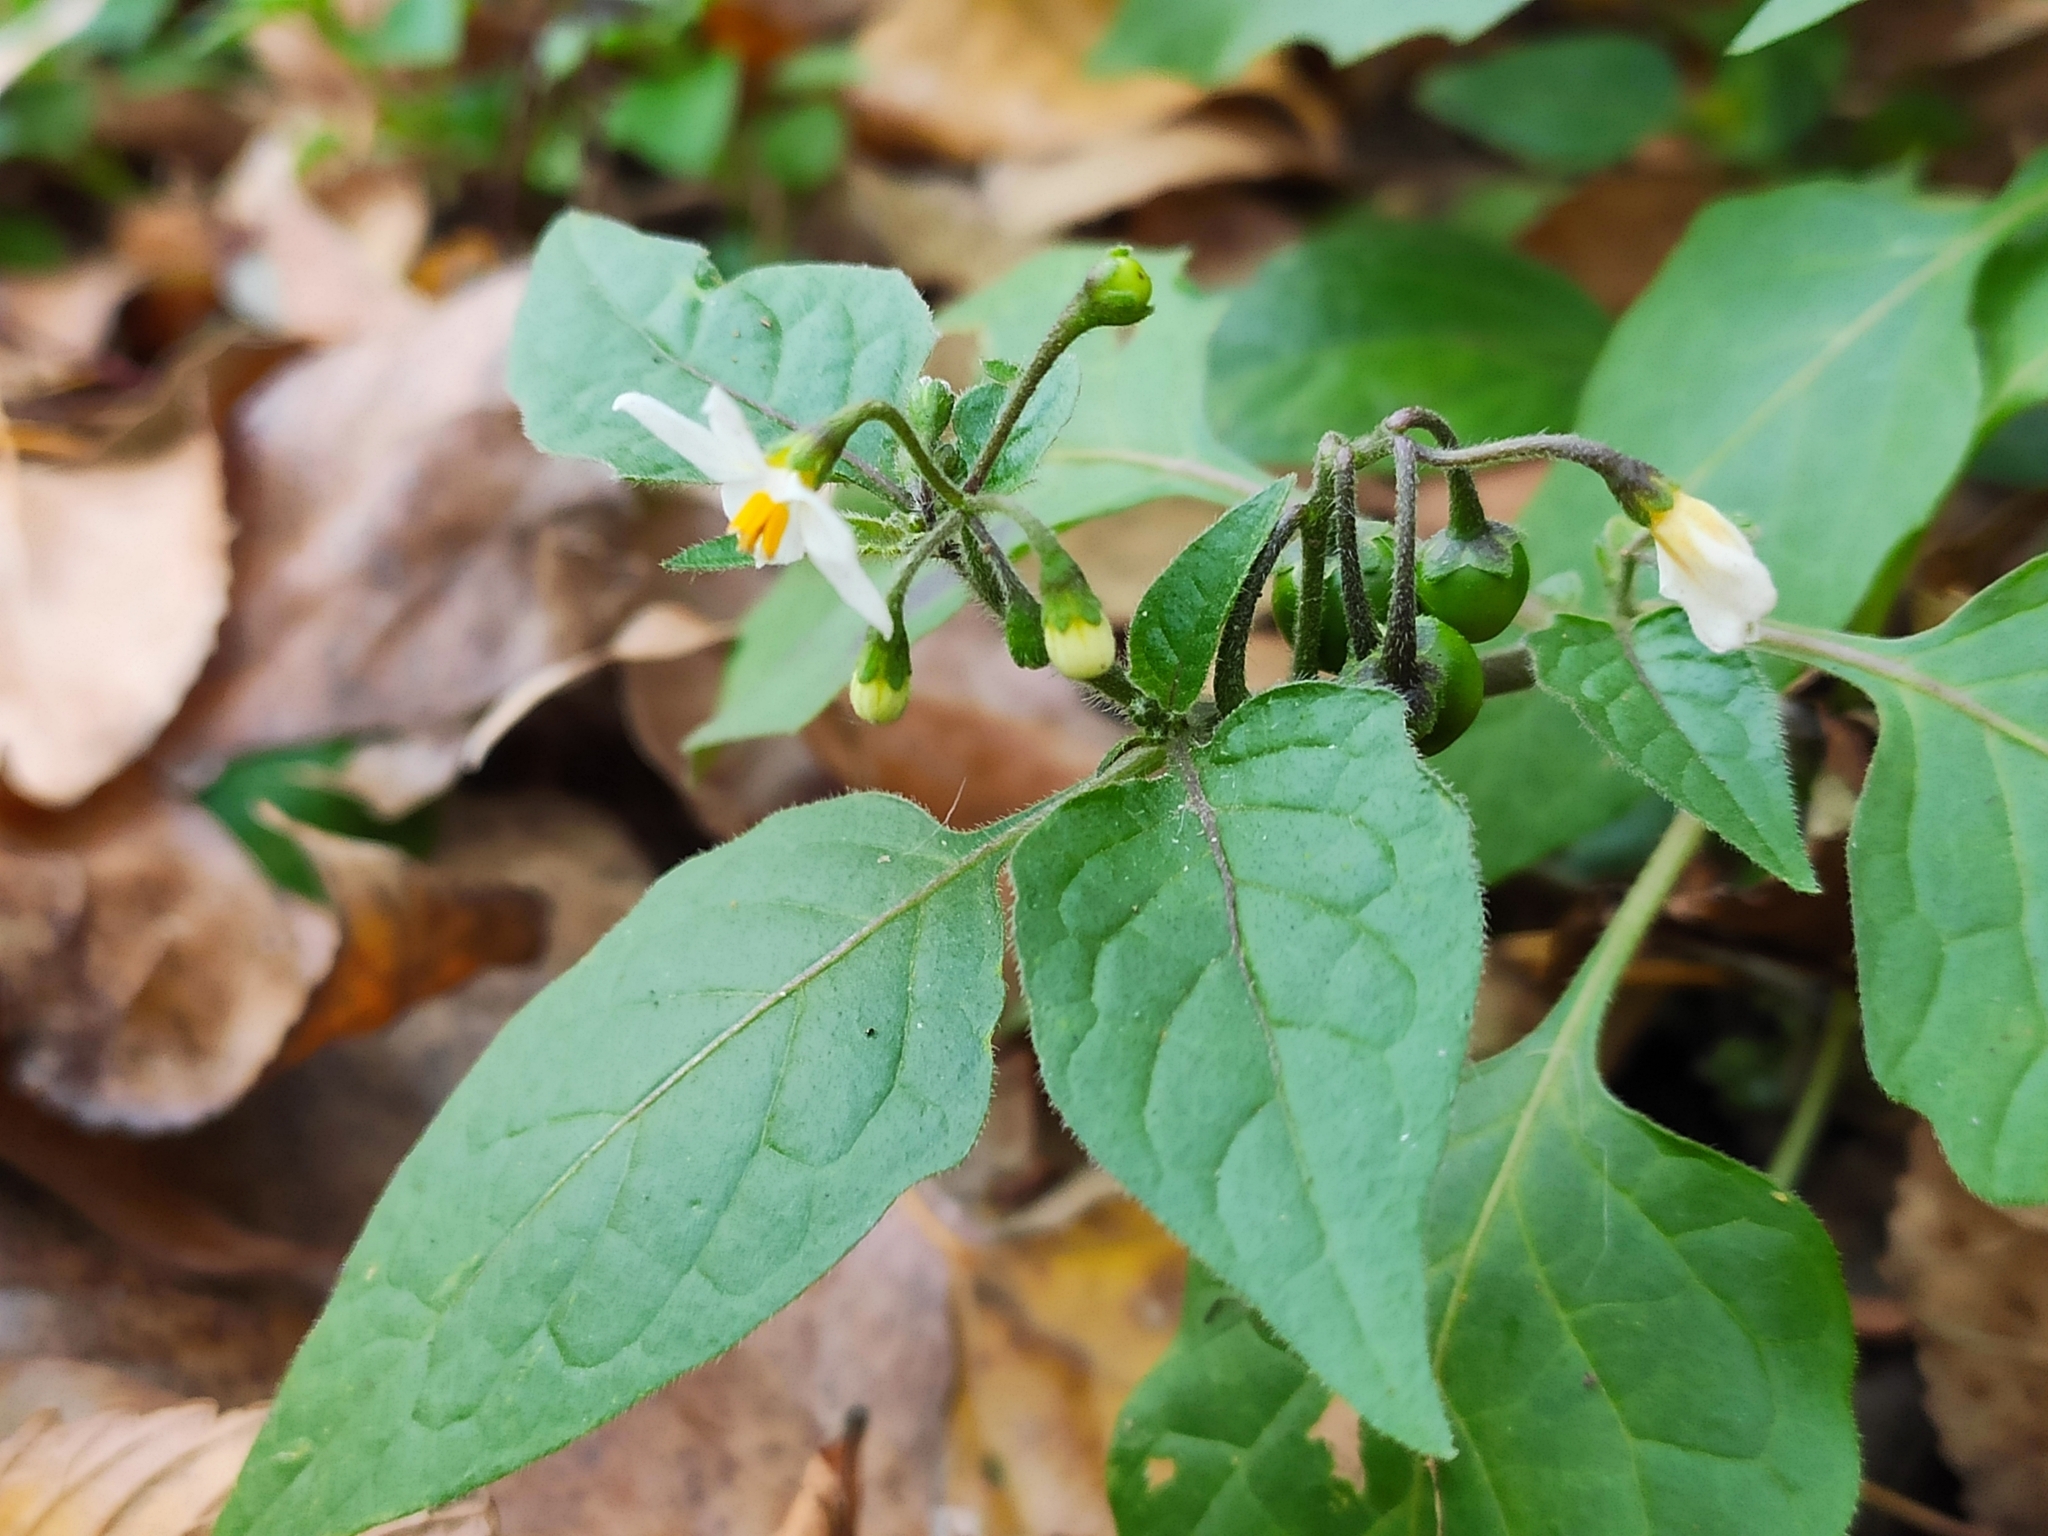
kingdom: Plantae
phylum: Tracheophyta
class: Magnoliopsida
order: Solanales
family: Solanaceae
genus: Solanum
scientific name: Solanum nigrum
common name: Black nightshade
